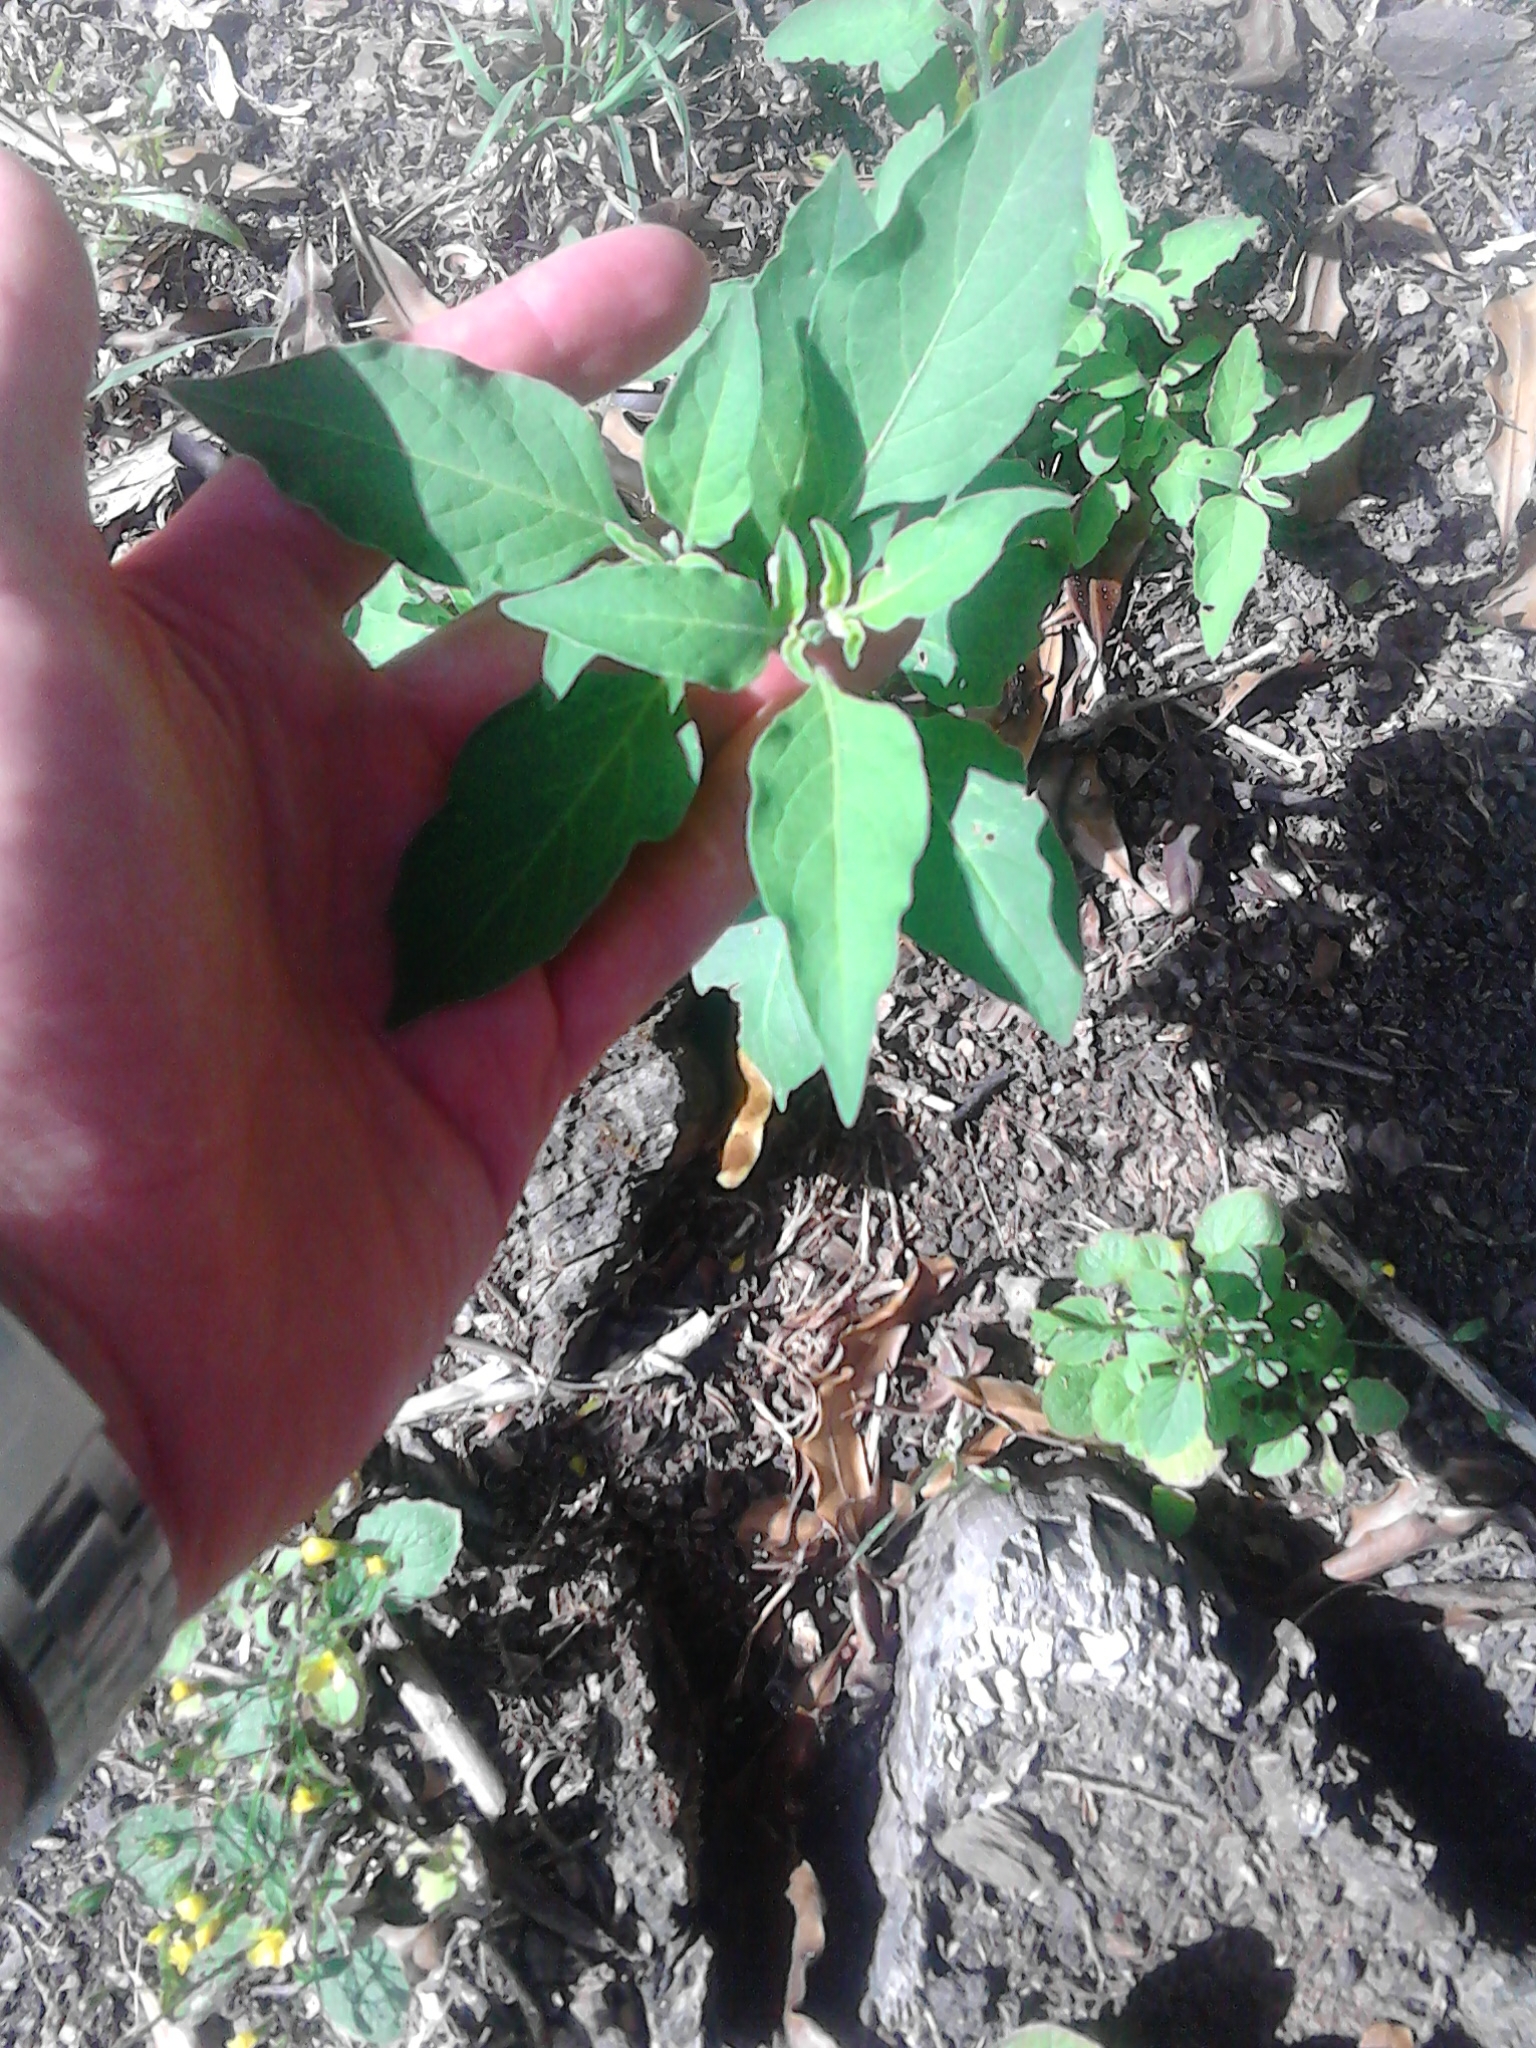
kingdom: Plantae
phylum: Tracheophyta
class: Magnoliopsida
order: Solanales
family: Solanaceae
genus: Solanum
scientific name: Solanum chenopodioides
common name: Tall nightshade
